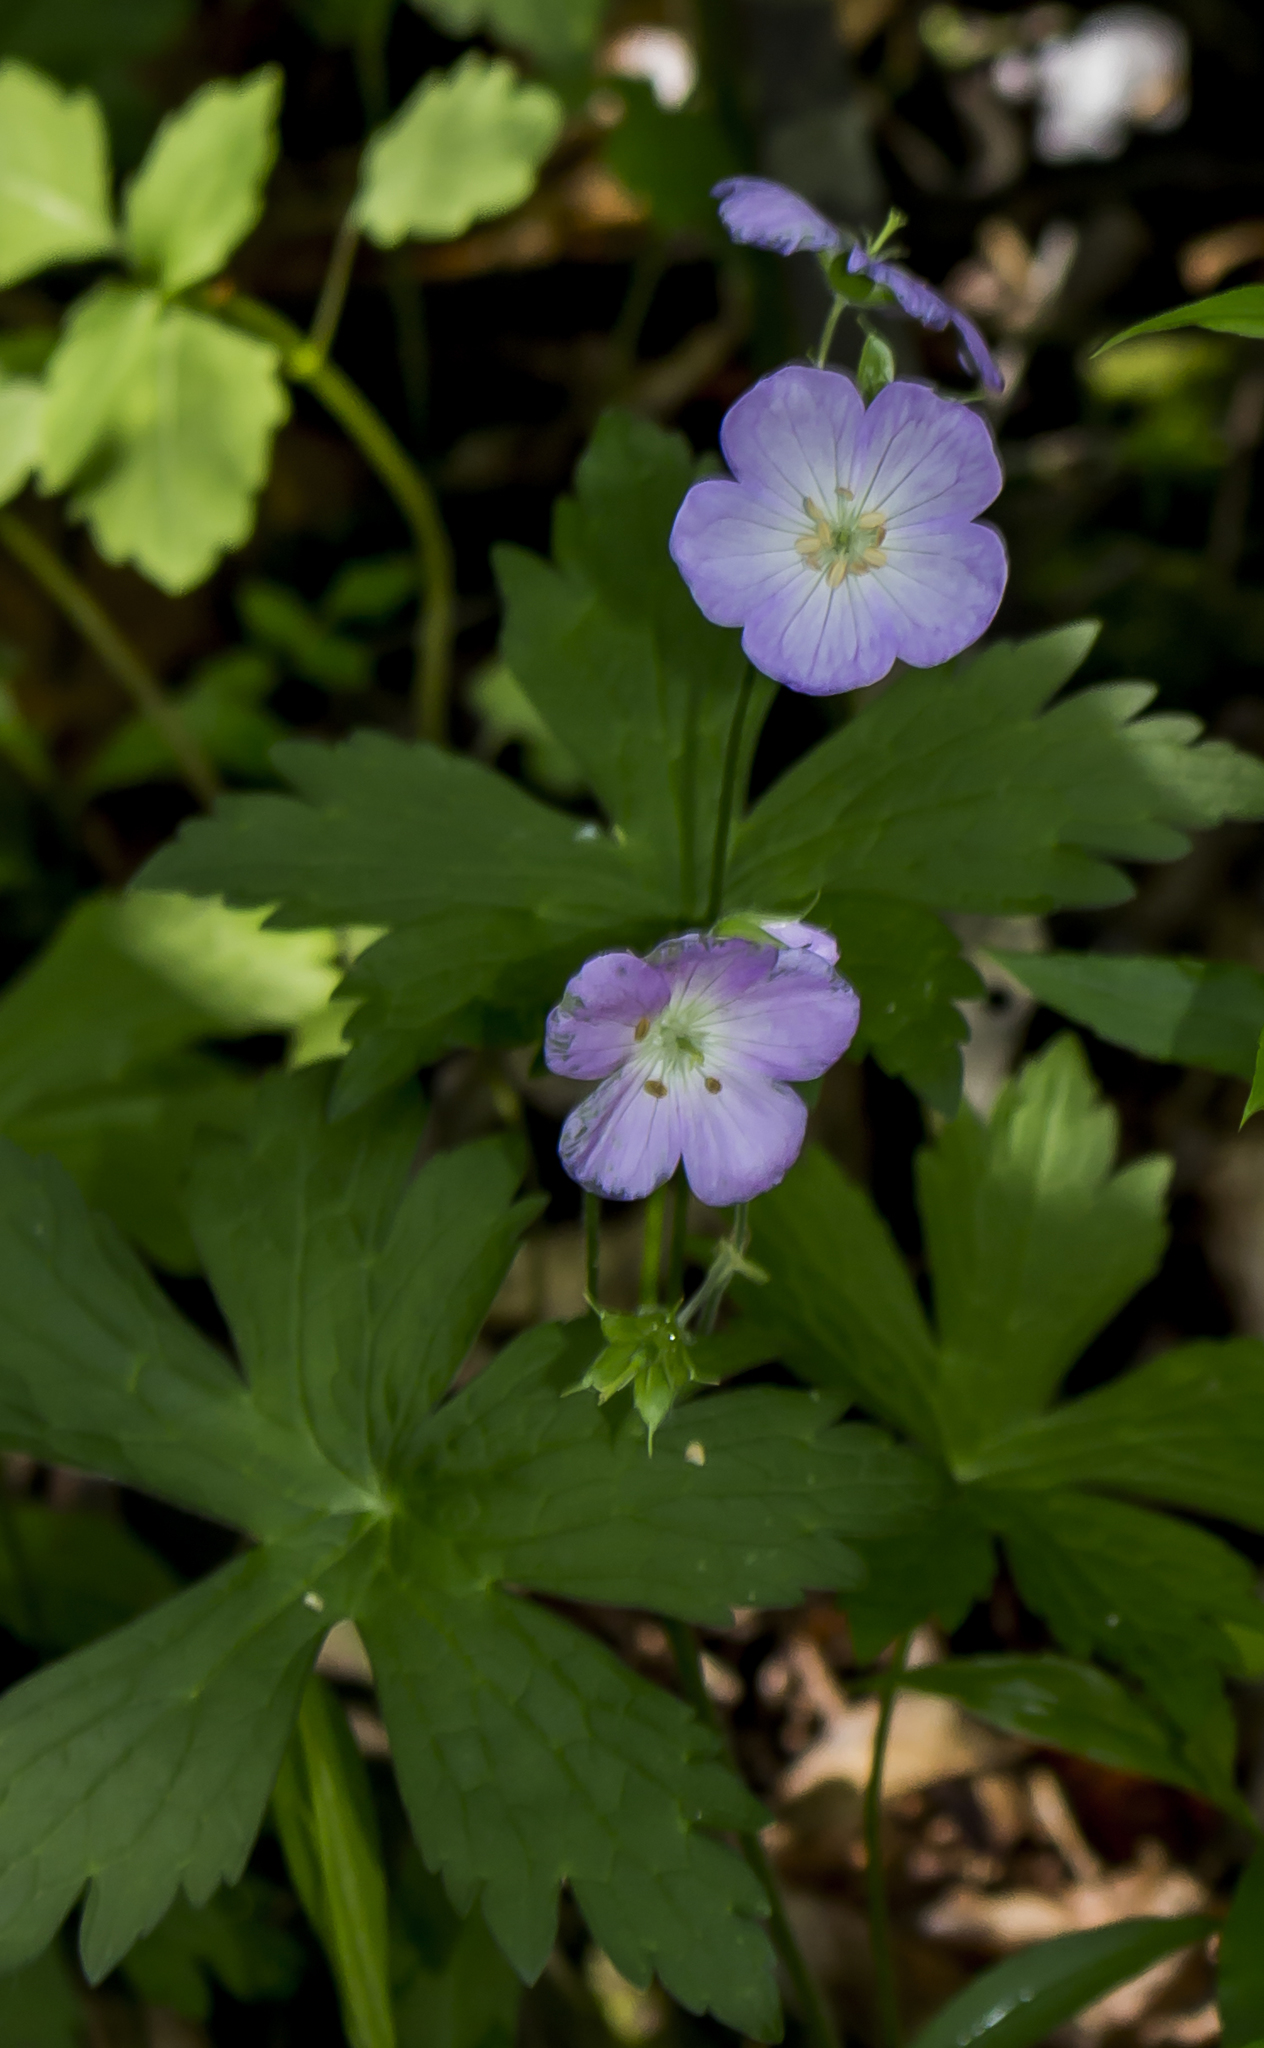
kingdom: Plantae
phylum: Tracheophyta
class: Magnoliopsida
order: Geraniales
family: Geraniaceae
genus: Geranium
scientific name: Geranium maculatum
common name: Spotted geranium
